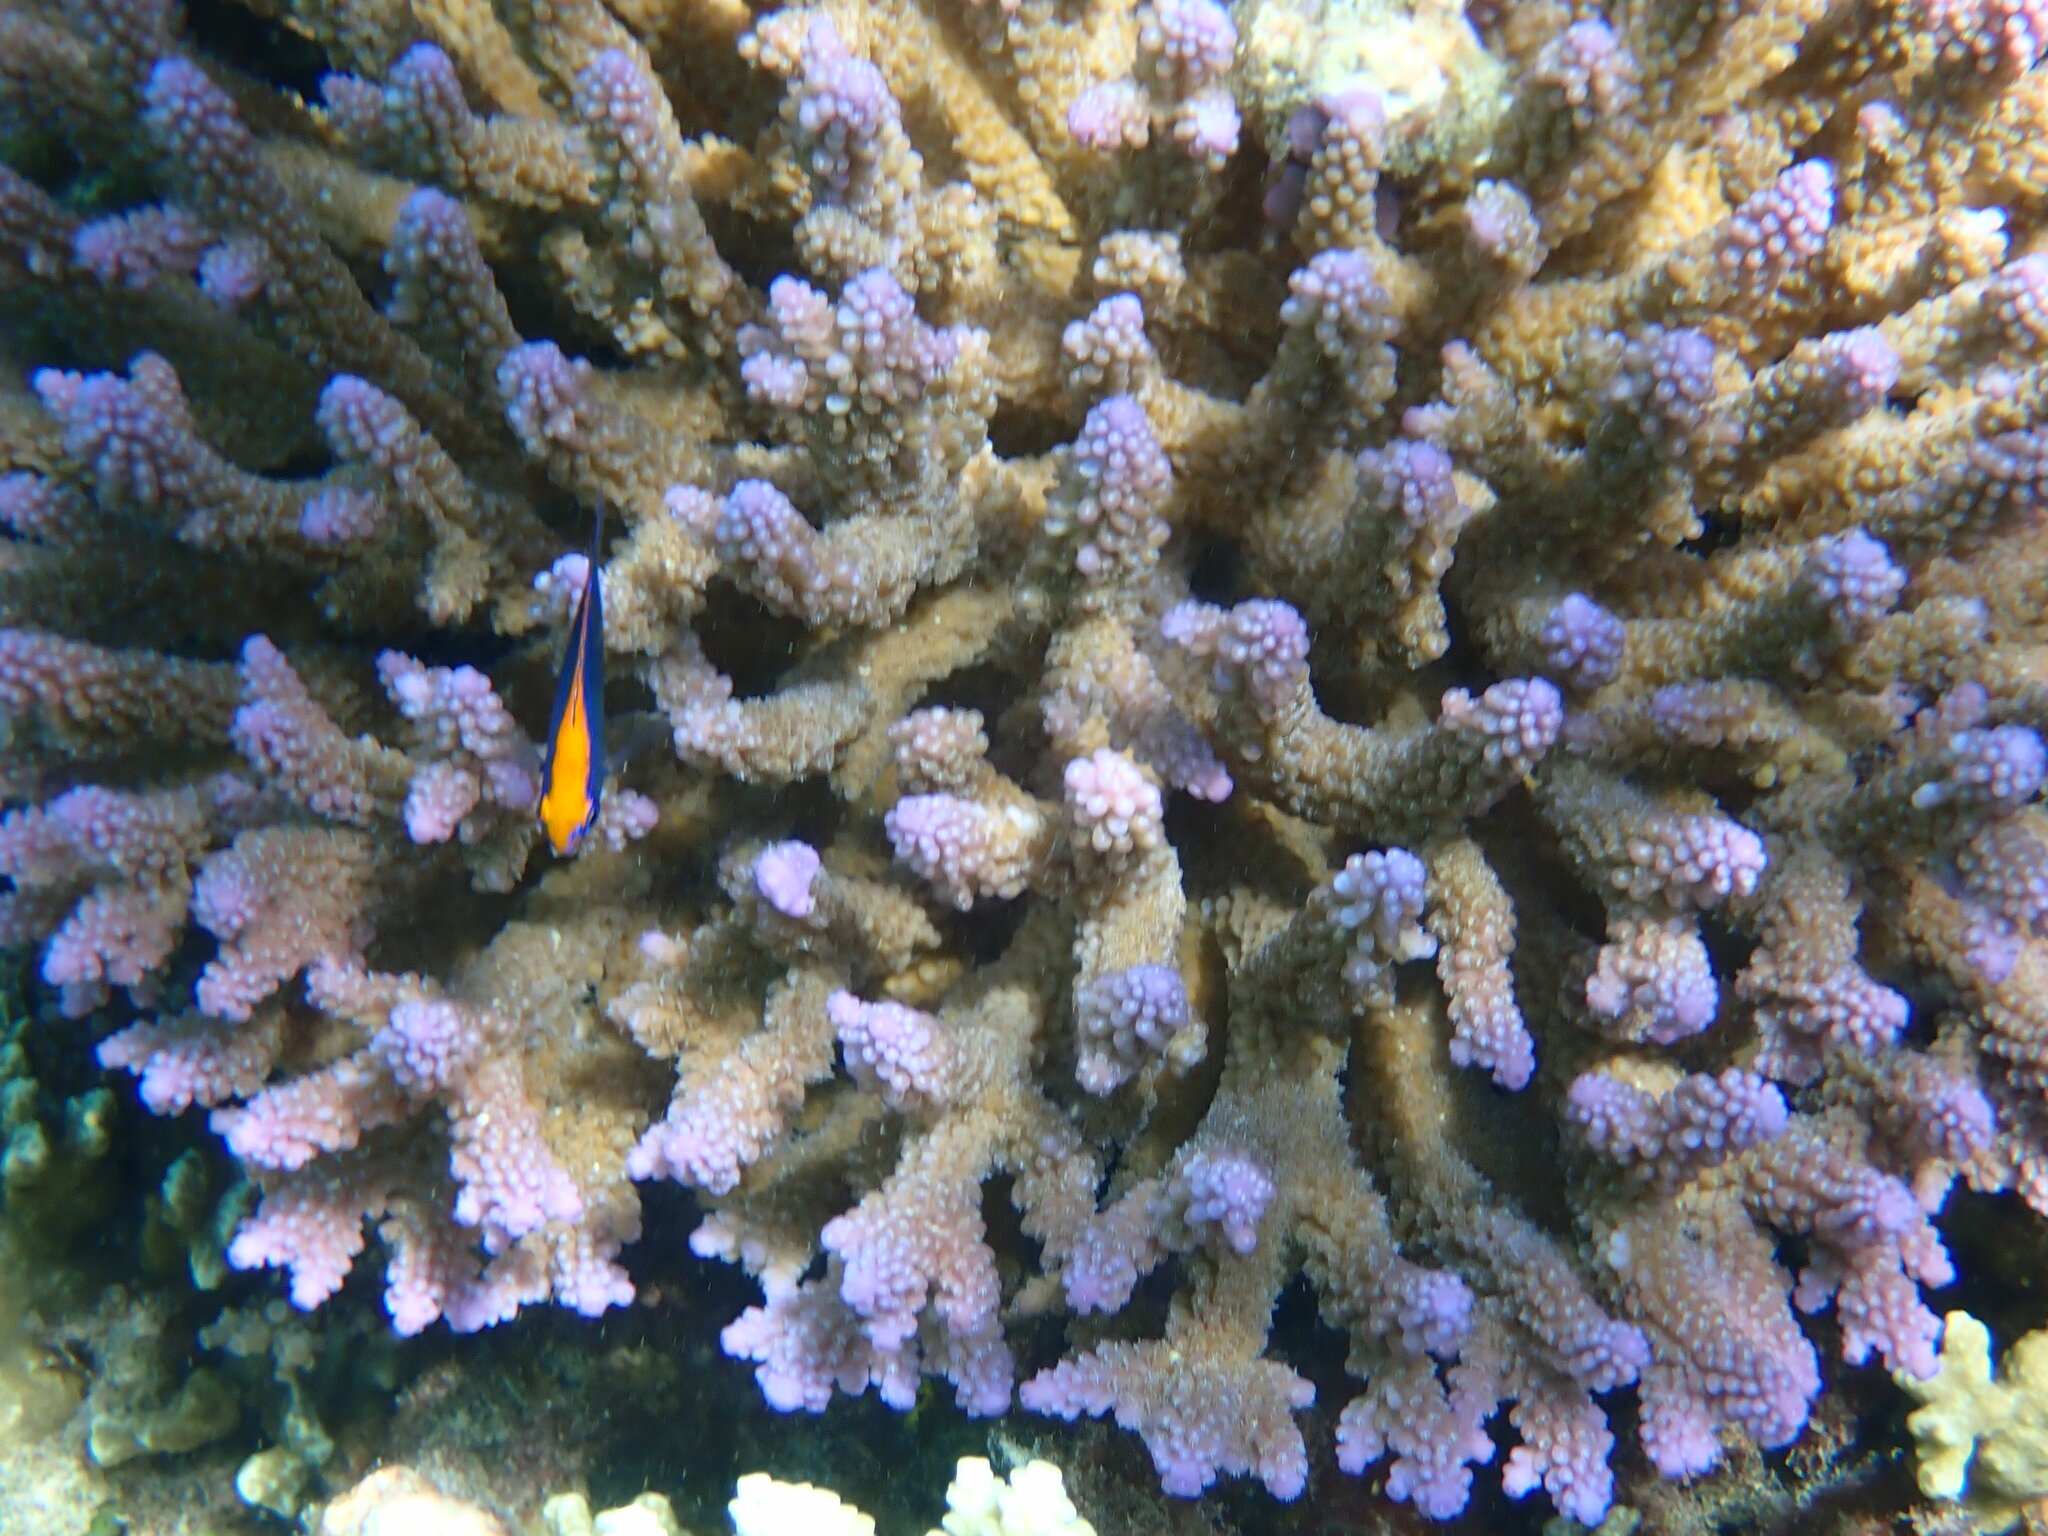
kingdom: Animalia
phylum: Chordata
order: Perciformes
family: Pomacentridae
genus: Pomacentrus
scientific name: Pomacentrus indicus
